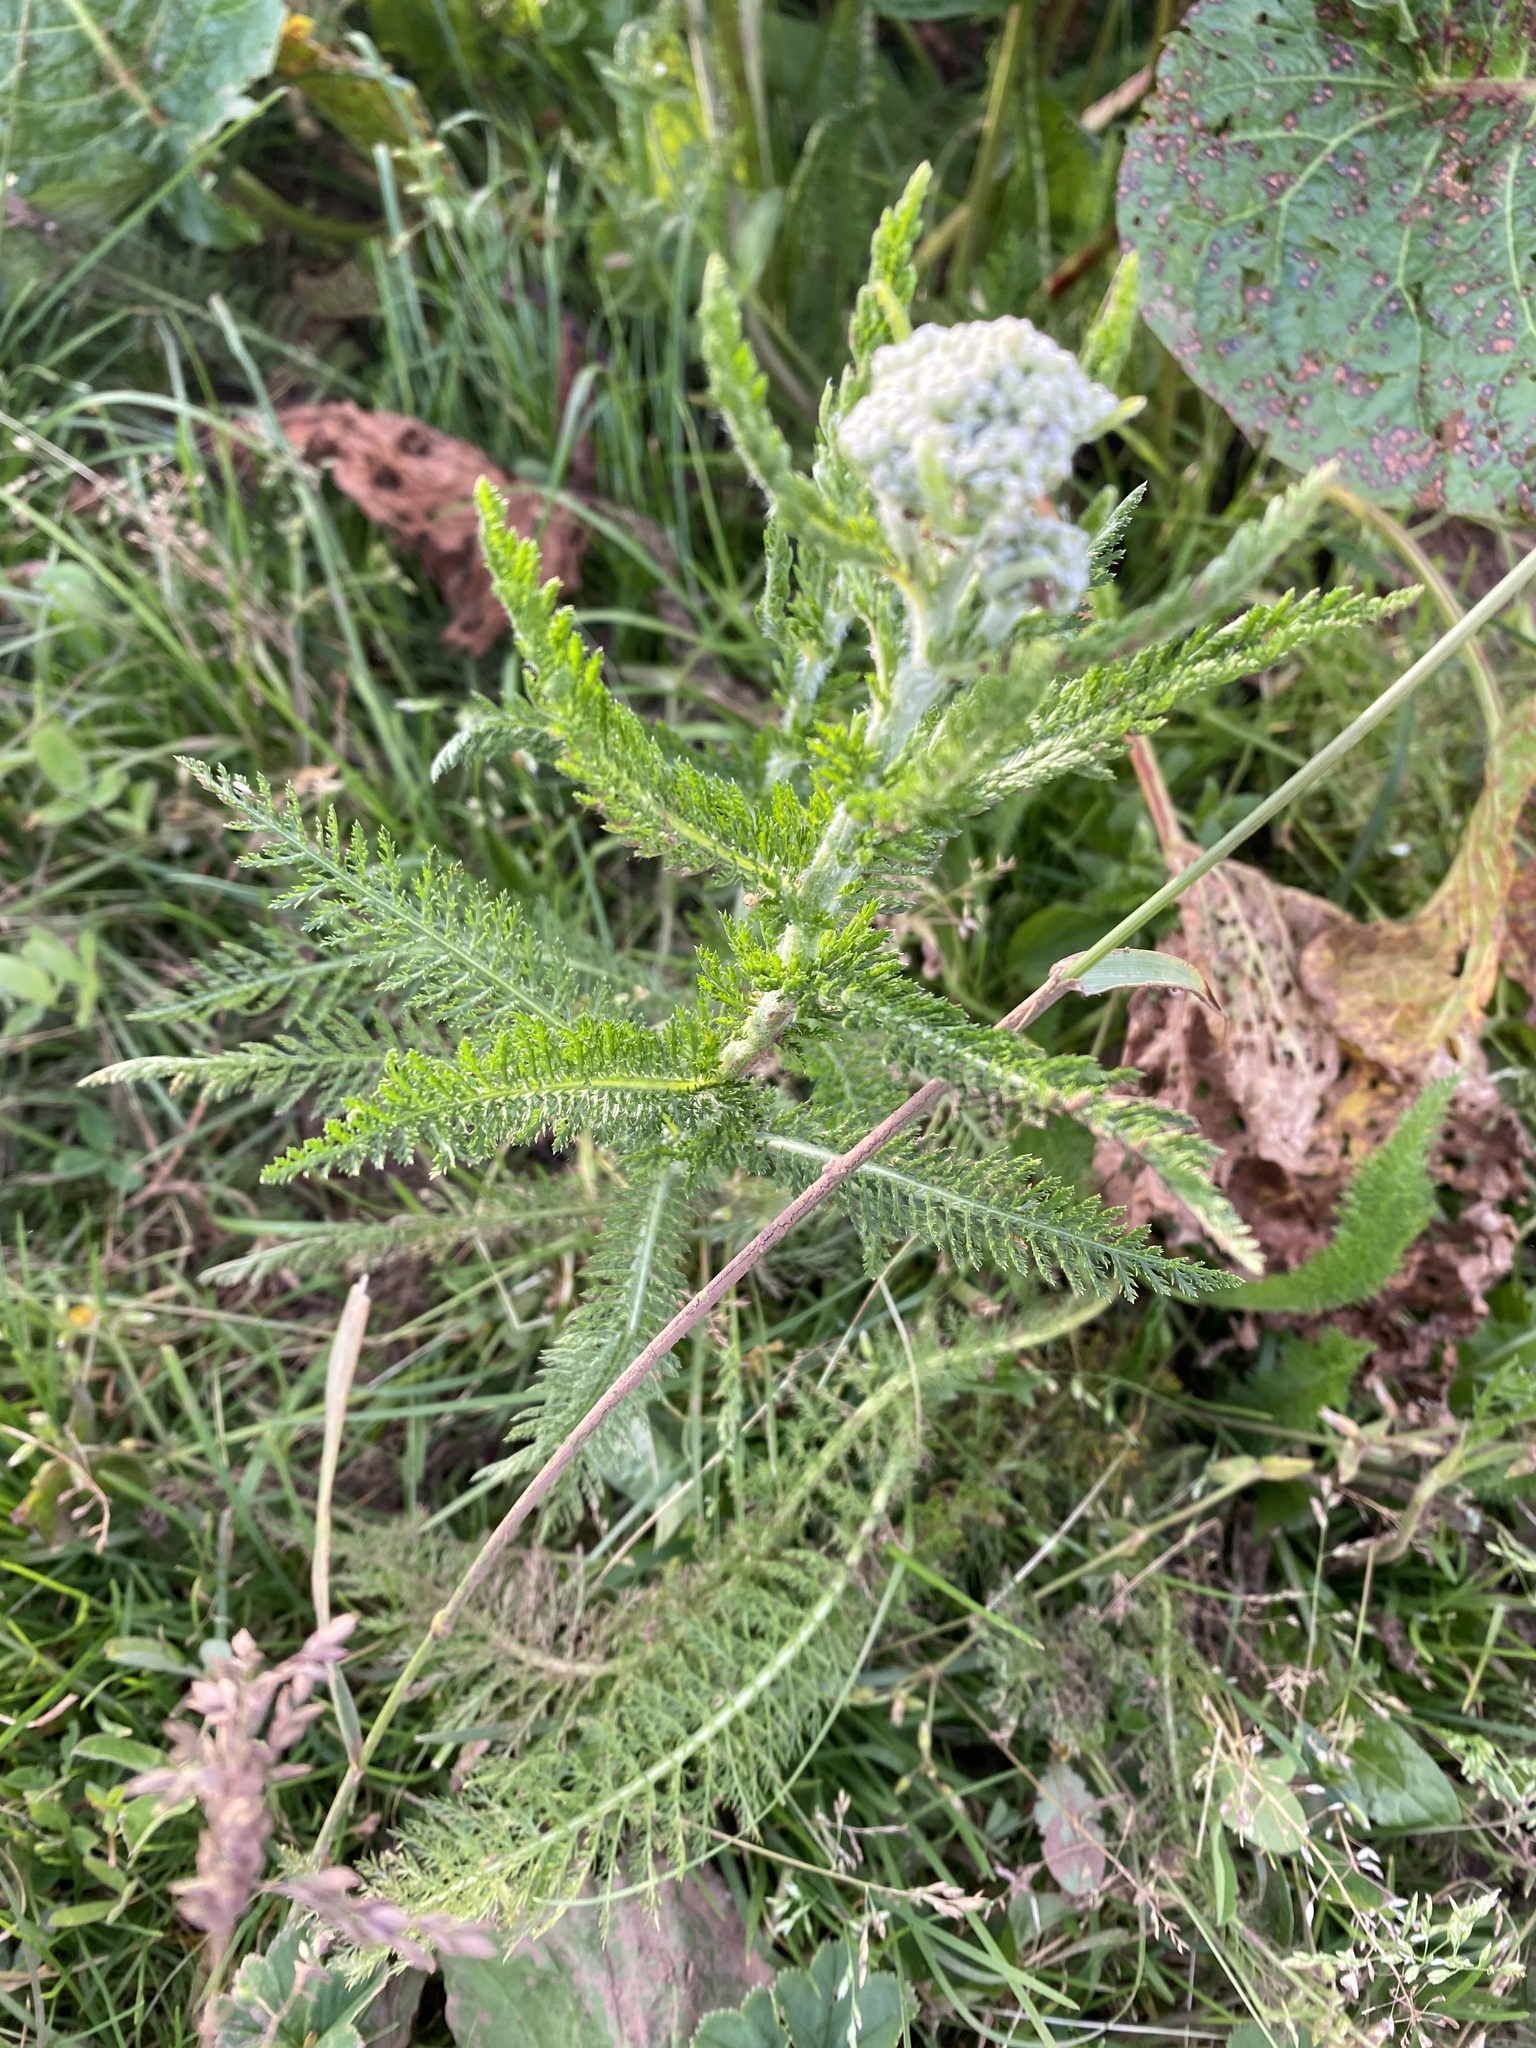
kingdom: Plantae
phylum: Tracheophyta
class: Magnoliopsida
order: Asterales
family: Asteraceae
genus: Achillea
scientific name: Achillea millefolium
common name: Yarrow
